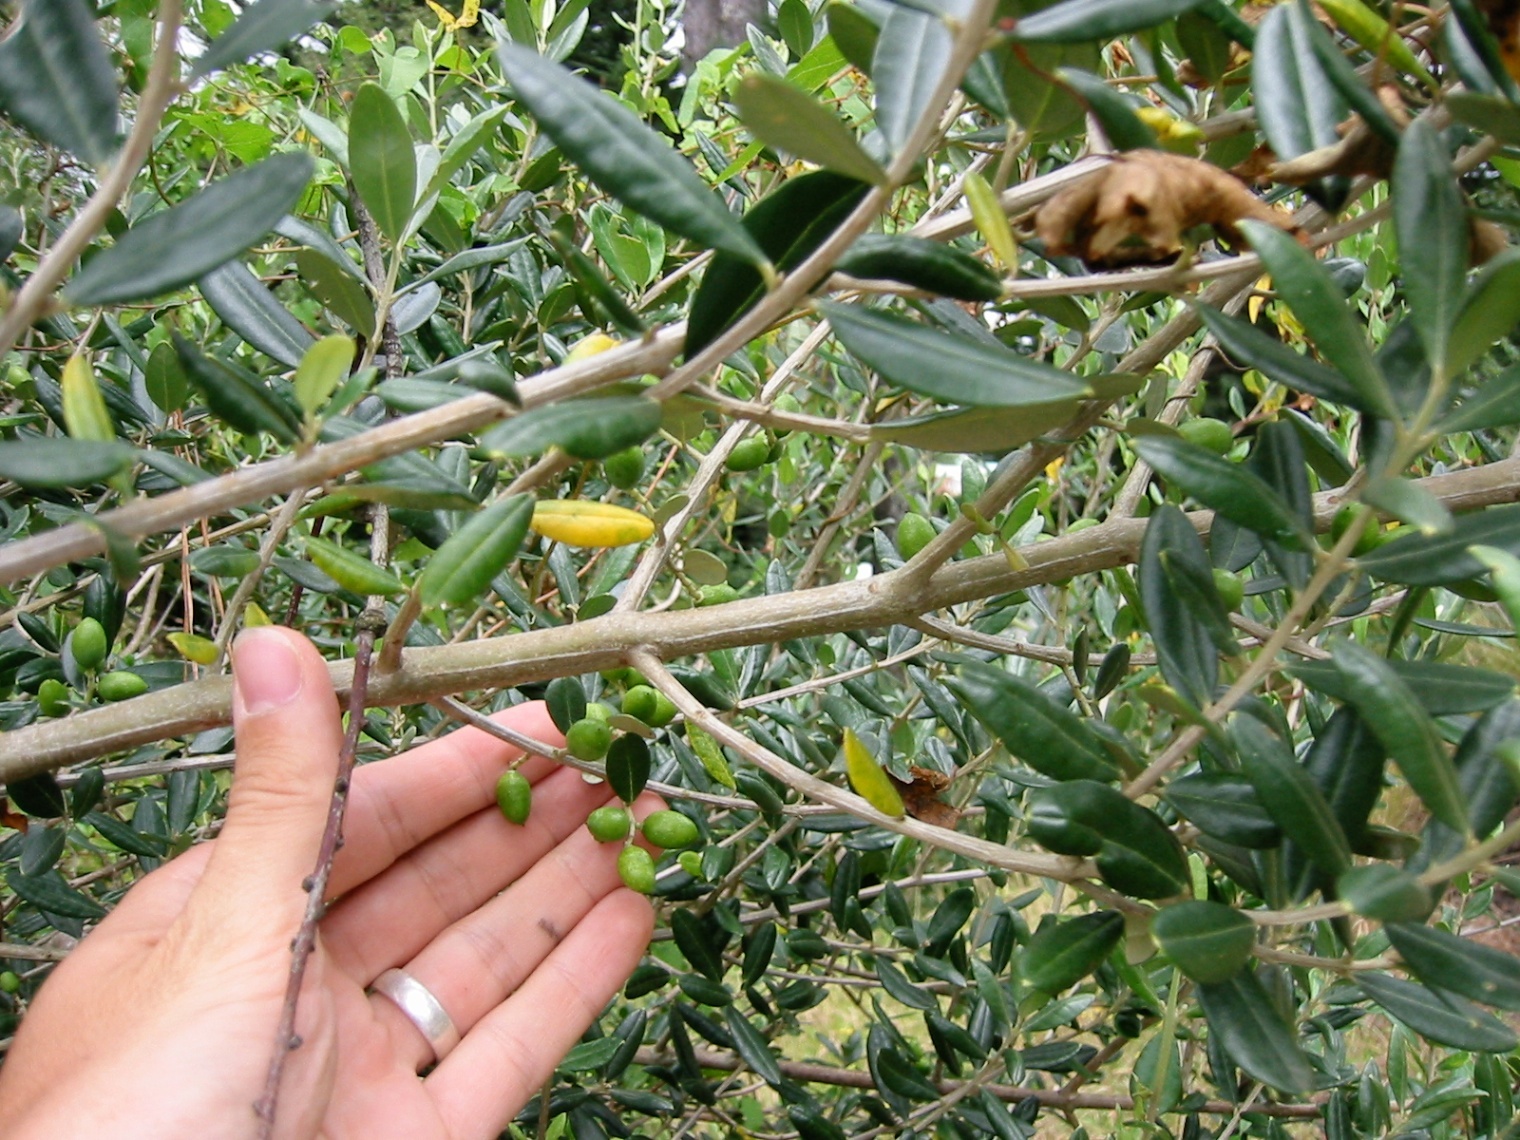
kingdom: Plantae
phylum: Tracheophyta
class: Magnoliopsida
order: Lamiales
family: Oleaceae
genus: Olea
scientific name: Olea europaea
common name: Olive
